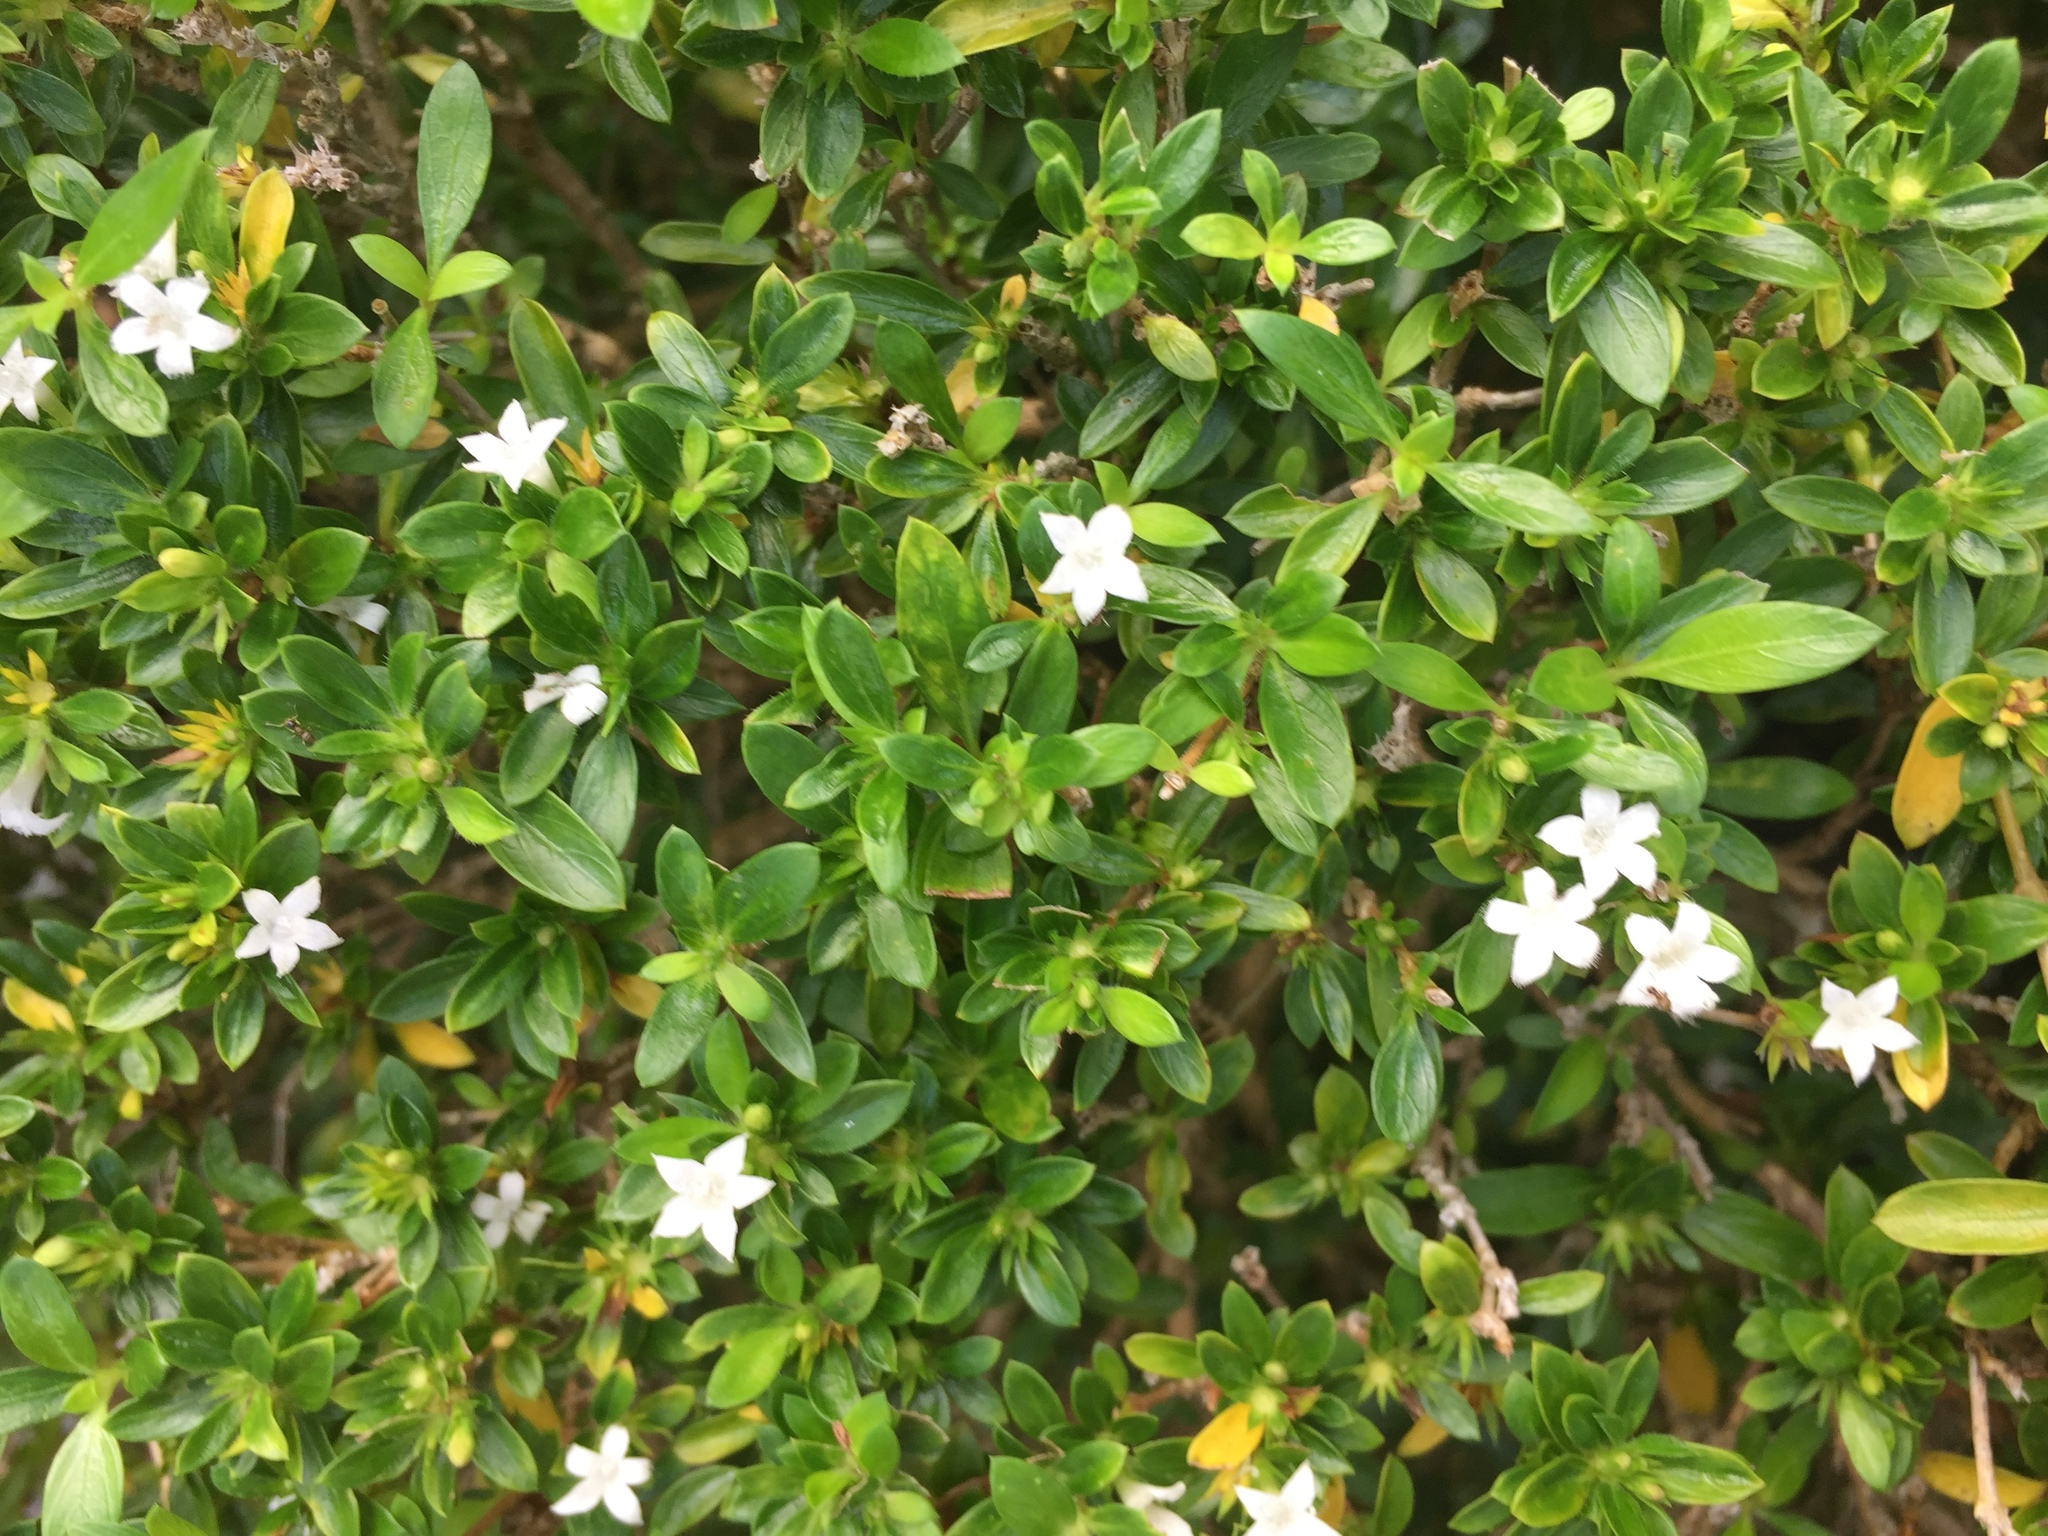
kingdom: Plantae
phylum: Tracheophyta
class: Magnoliopsida
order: Gentianales
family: Rubiaceae
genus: Buchozia
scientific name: Buchozia japonica
